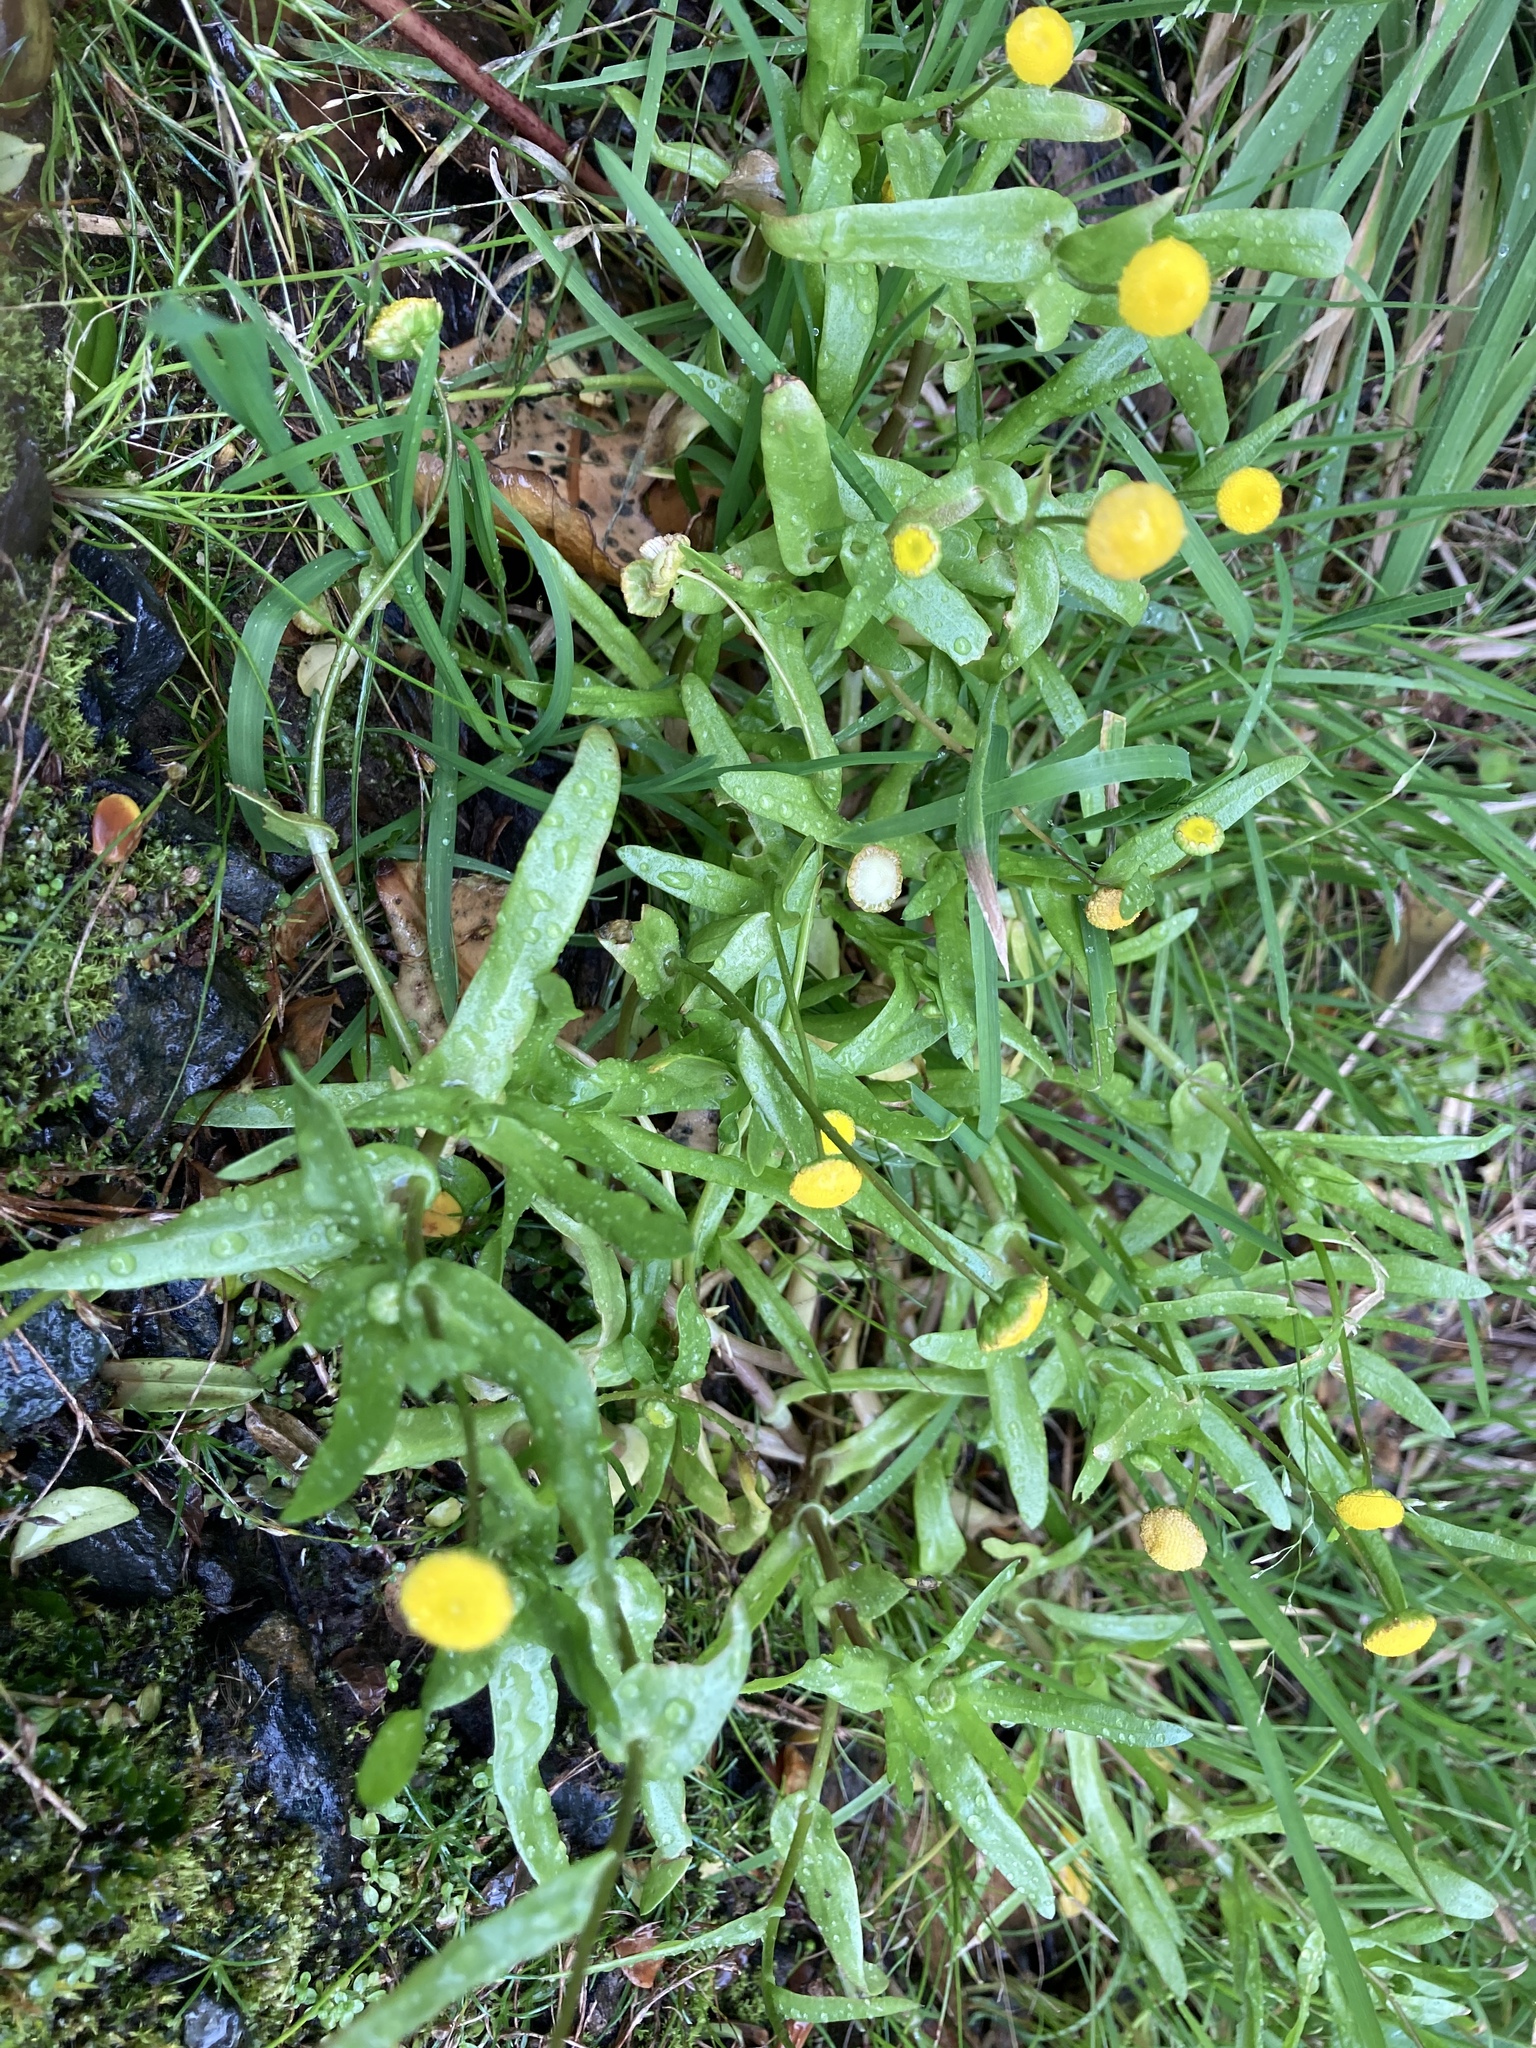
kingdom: Plantae
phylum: Tracheophyta
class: Magnoliopsida
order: Asterales
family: Asteraceae
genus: Cotula
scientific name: Cotula coronopifolia
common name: Buttonweed
